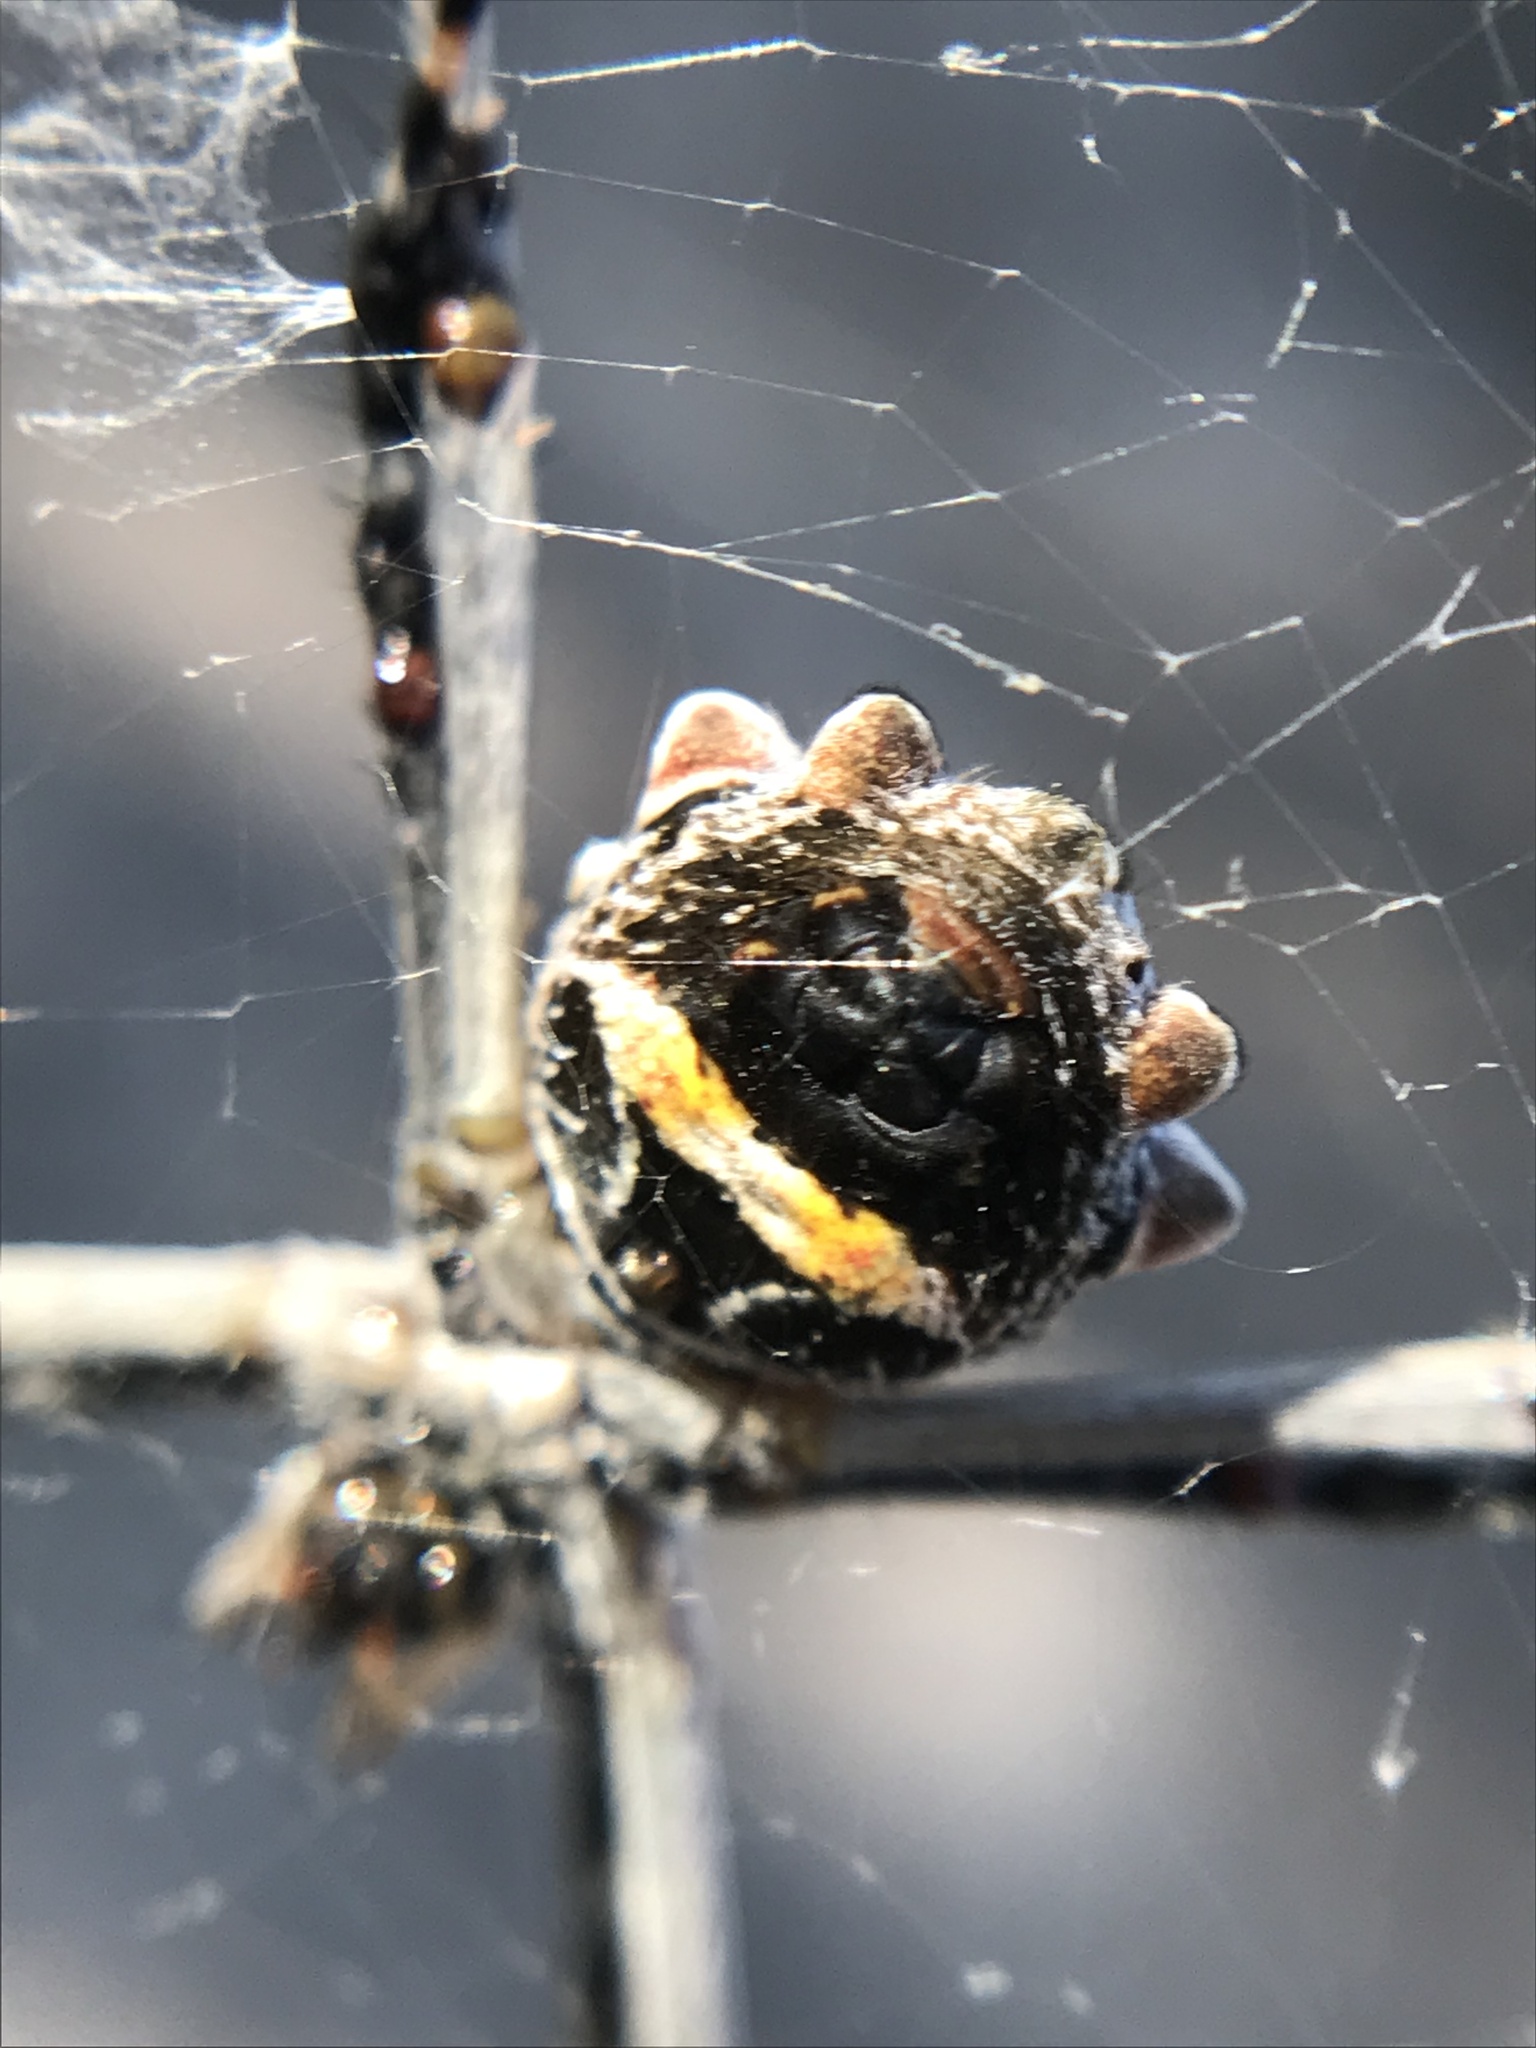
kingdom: Animalia
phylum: Arthropoda
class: Arachnida
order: Araneae
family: Araneidae
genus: Argiope
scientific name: Argiope argentata
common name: Orb weavers
